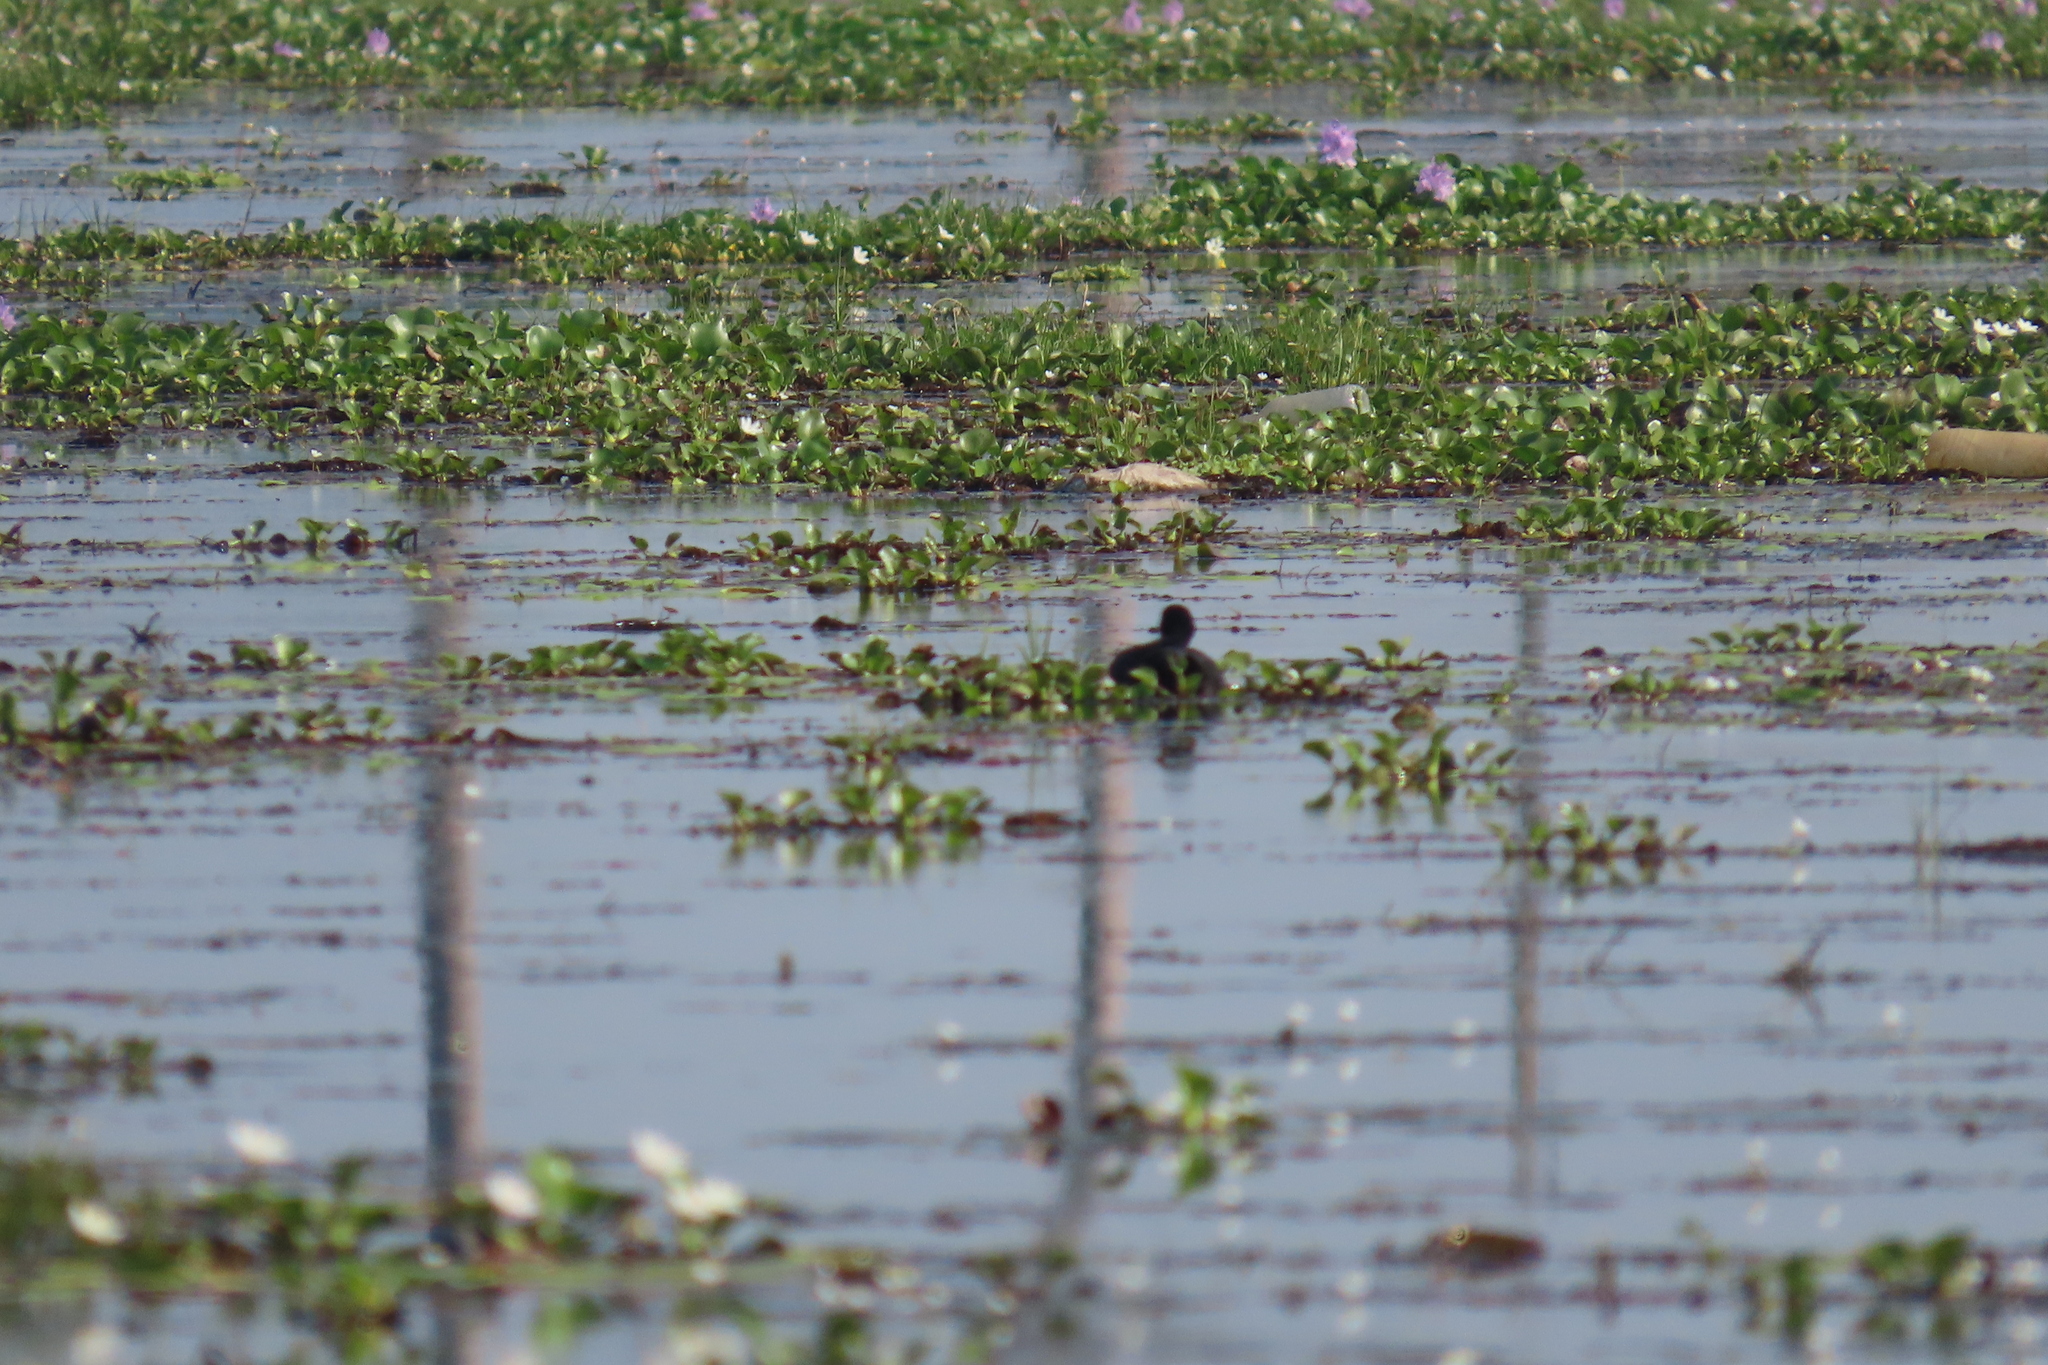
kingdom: Plantae
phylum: Tracheophyta
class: Liliopsida
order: Commelinales
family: Pontederiaceae
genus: Pontederia
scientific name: Pontederia crassipes
